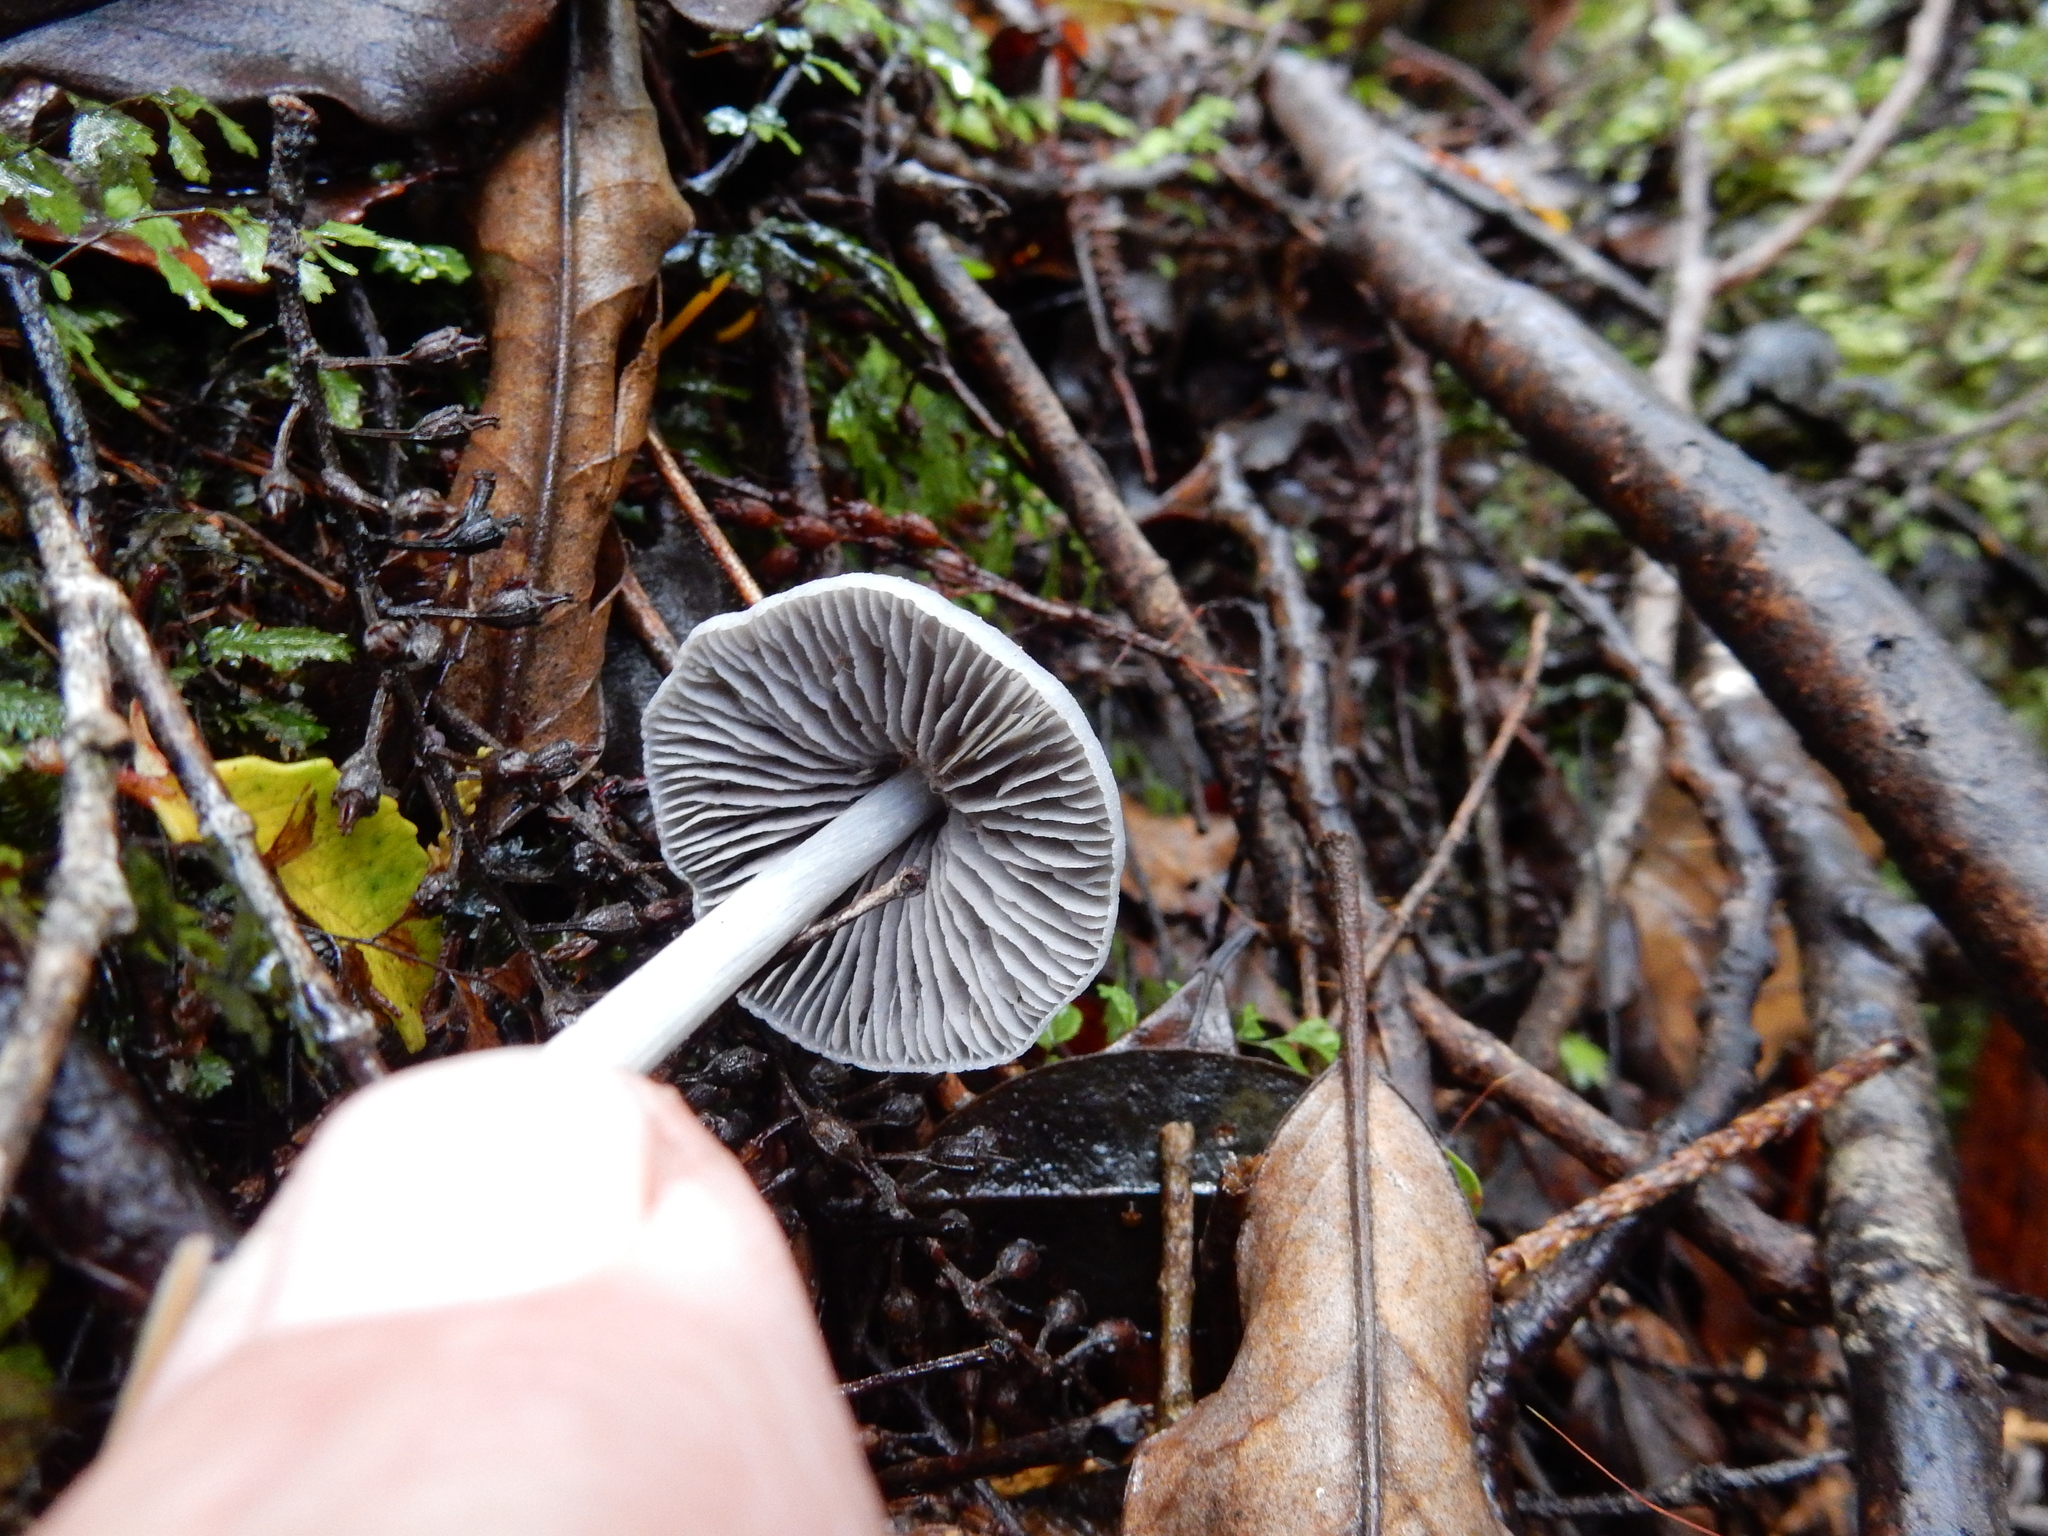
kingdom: Fungi
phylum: Basidiomycota
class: Agaricomycetes
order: Agaricales
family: Entolomataceae
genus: Entoloma
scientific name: Entoloma canoconicum
